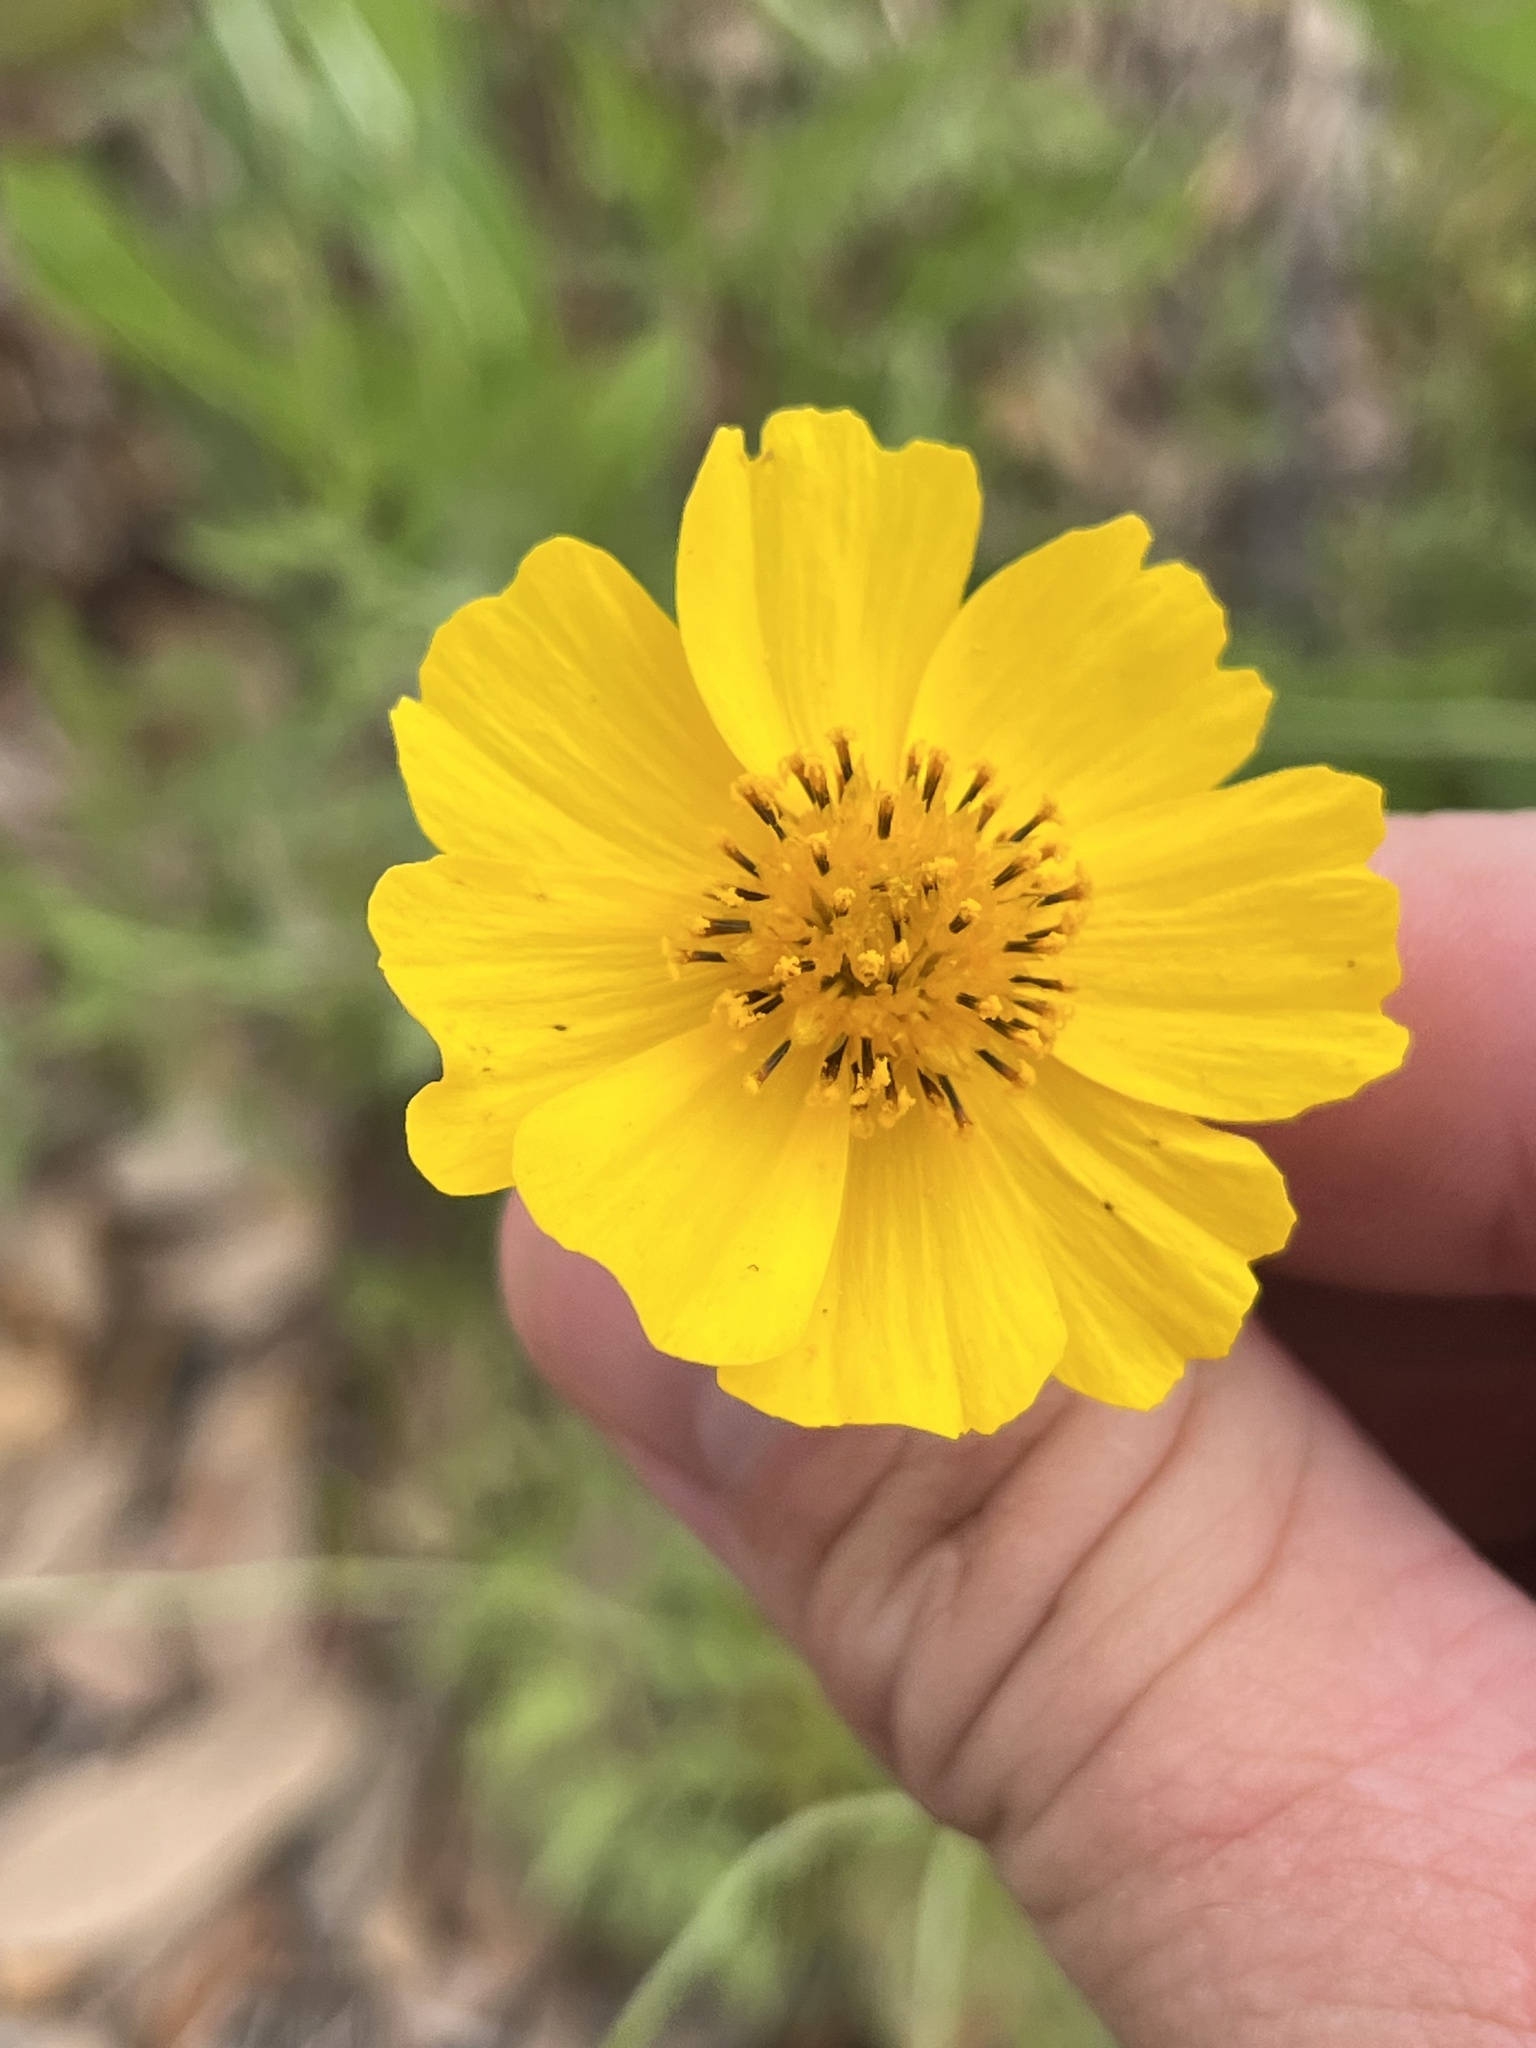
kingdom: Plantae
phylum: Tracheophyta
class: Magnoliopsida
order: Asterales
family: Asteraceae
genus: Thelesperma
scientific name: Thelesperma filifolium
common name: Stiff greenthread
